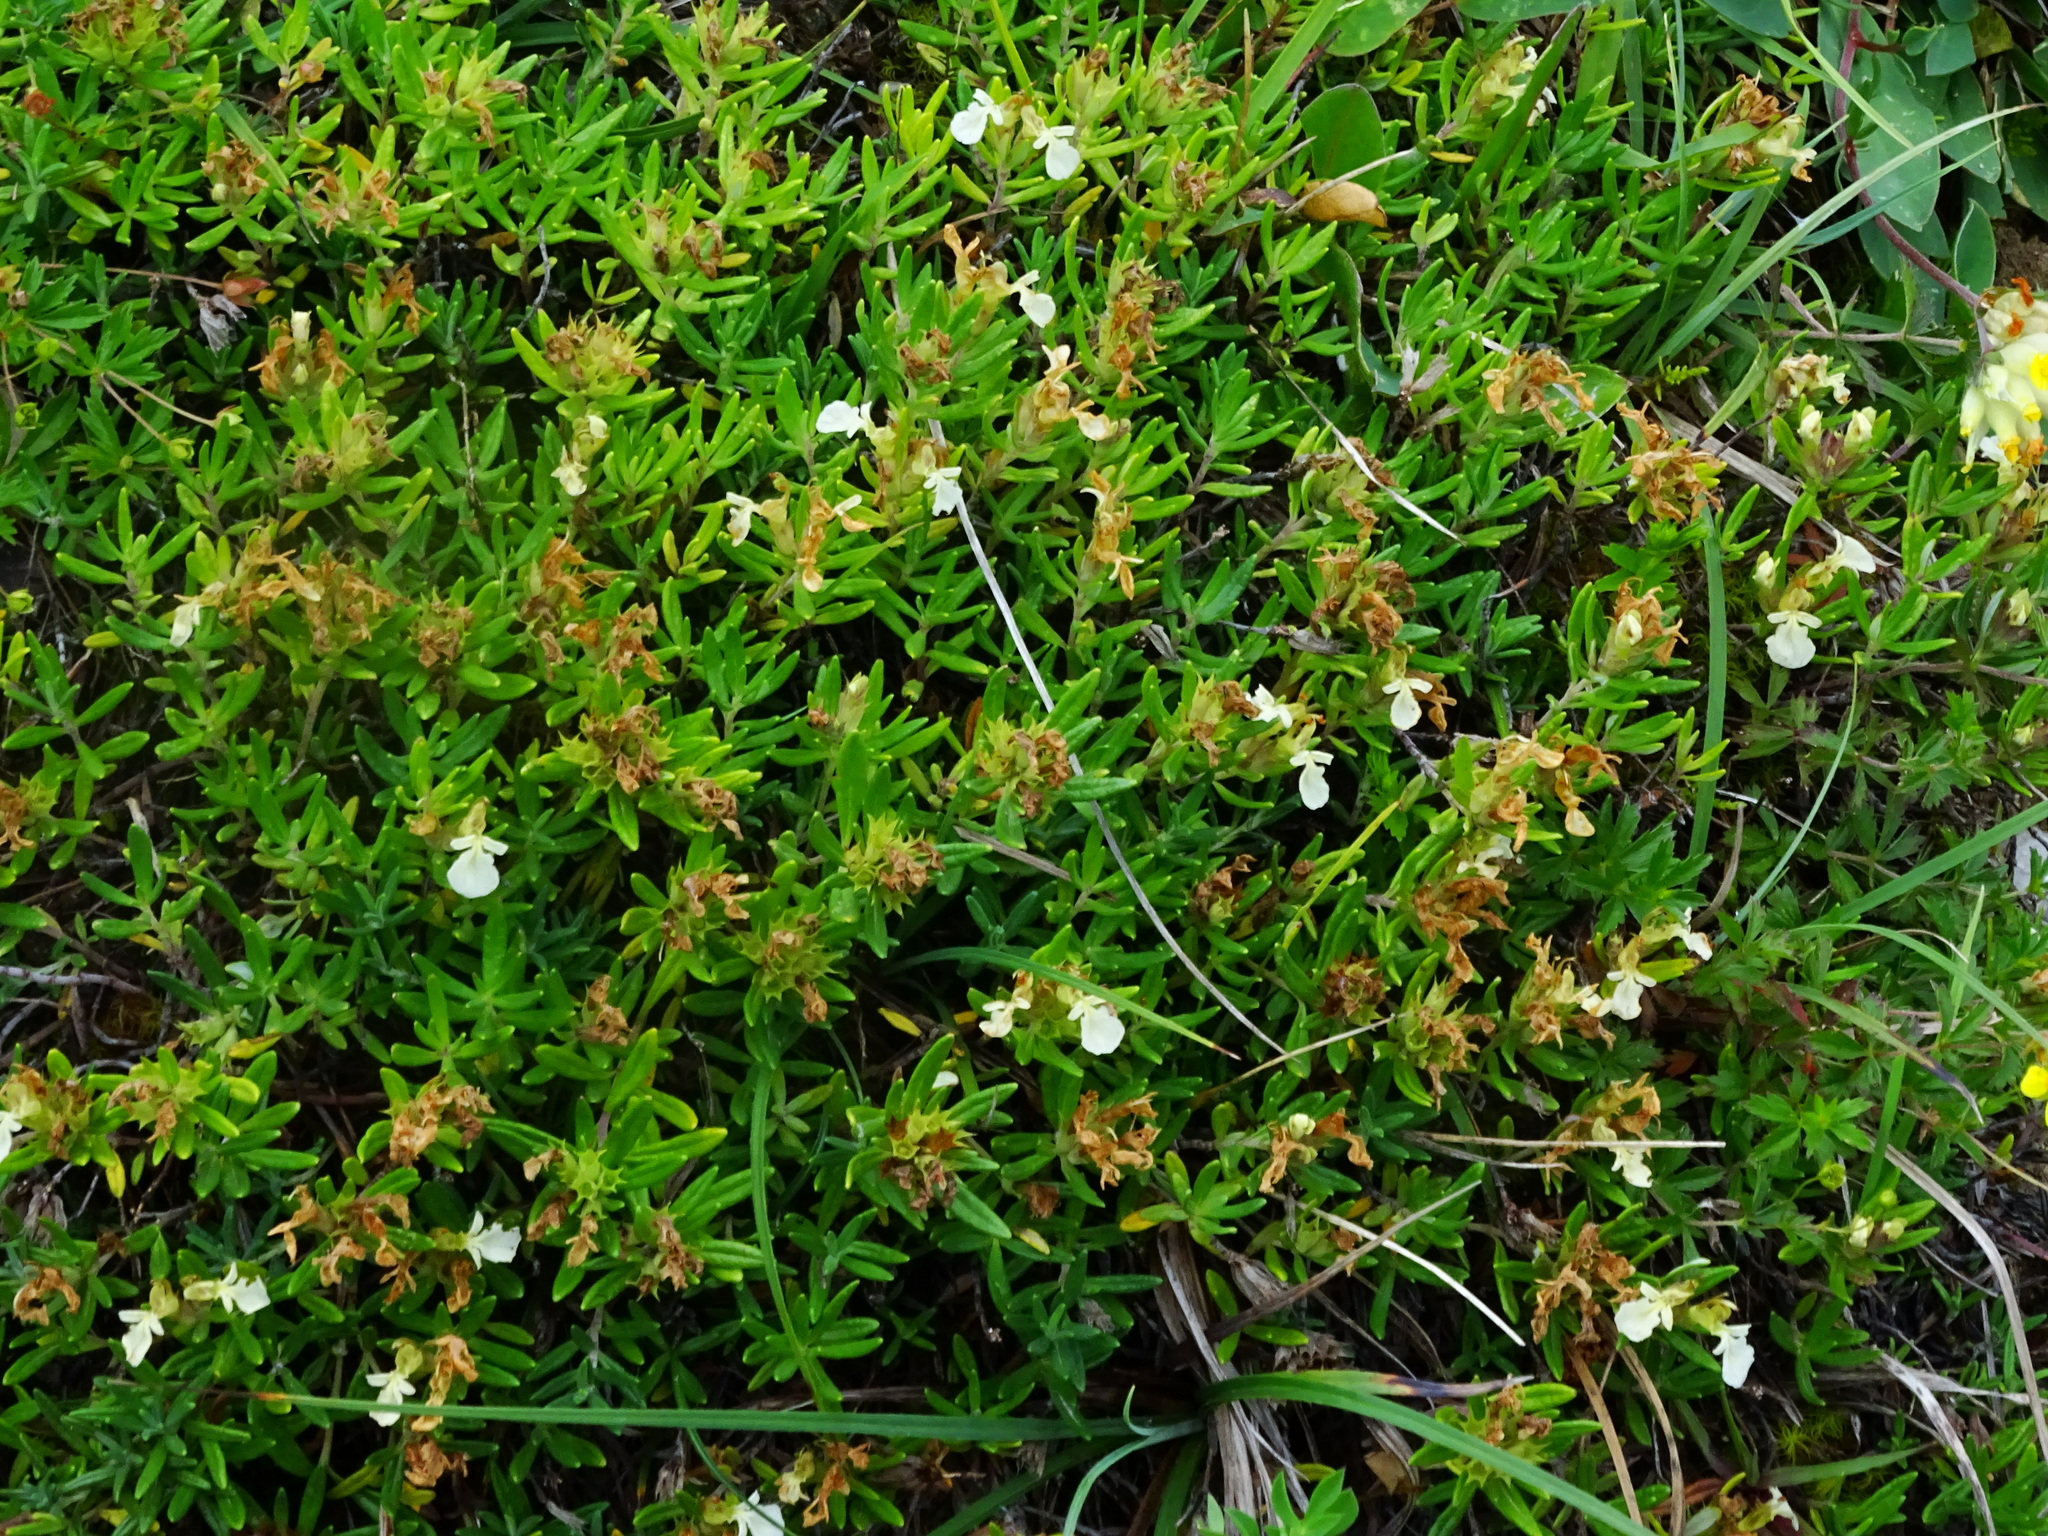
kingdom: Plantae
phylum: Tracheophyta
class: Magnoliopsida
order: Lamiales
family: Lamiaceae
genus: Teucrium
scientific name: Teucrium montanum
